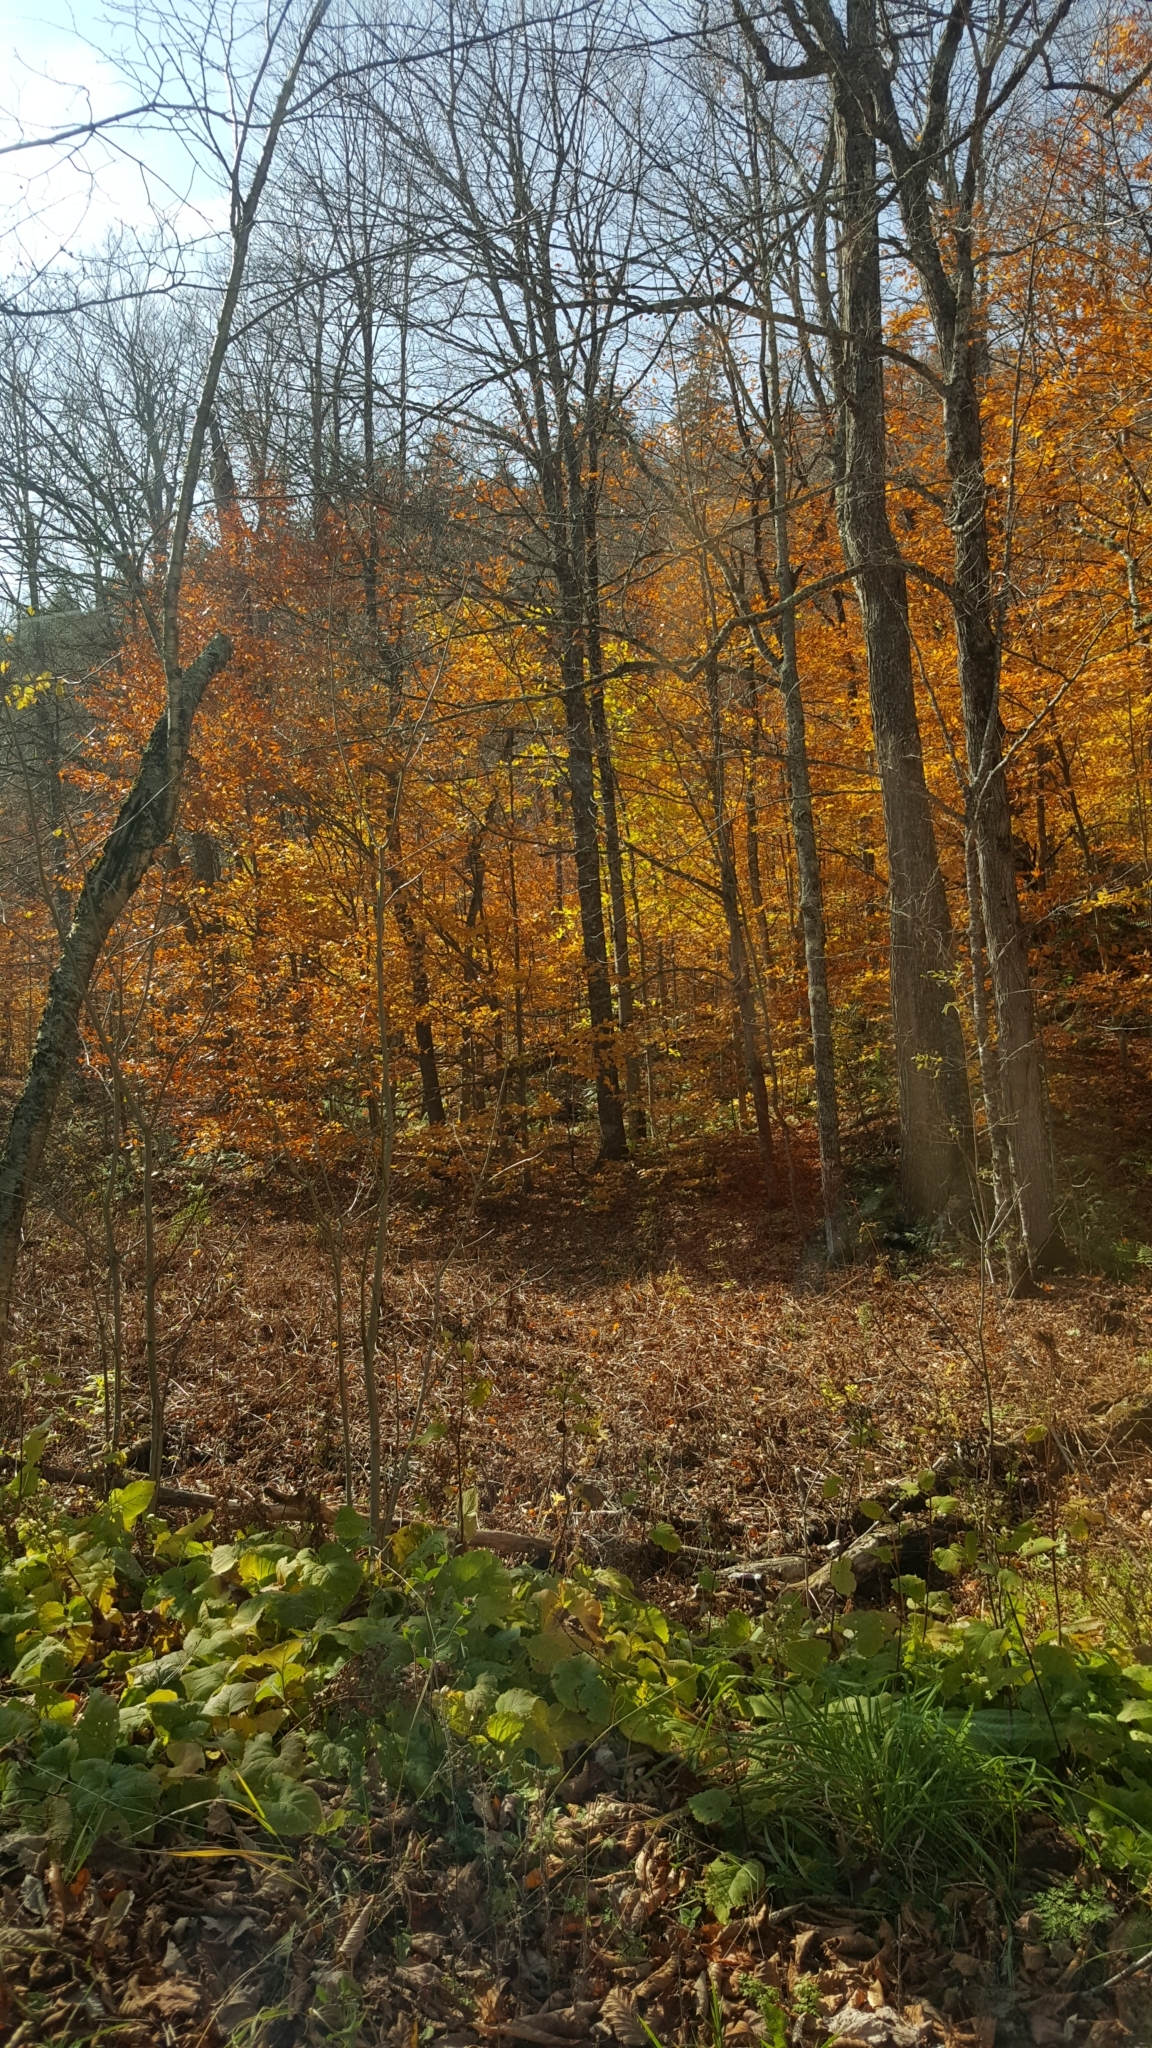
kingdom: Plantae
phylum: Tracheophyta
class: Magnoliopsida
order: Fagales
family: Fagaceae
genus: Fagus
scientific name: Fagus grandifolia
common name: American beech
